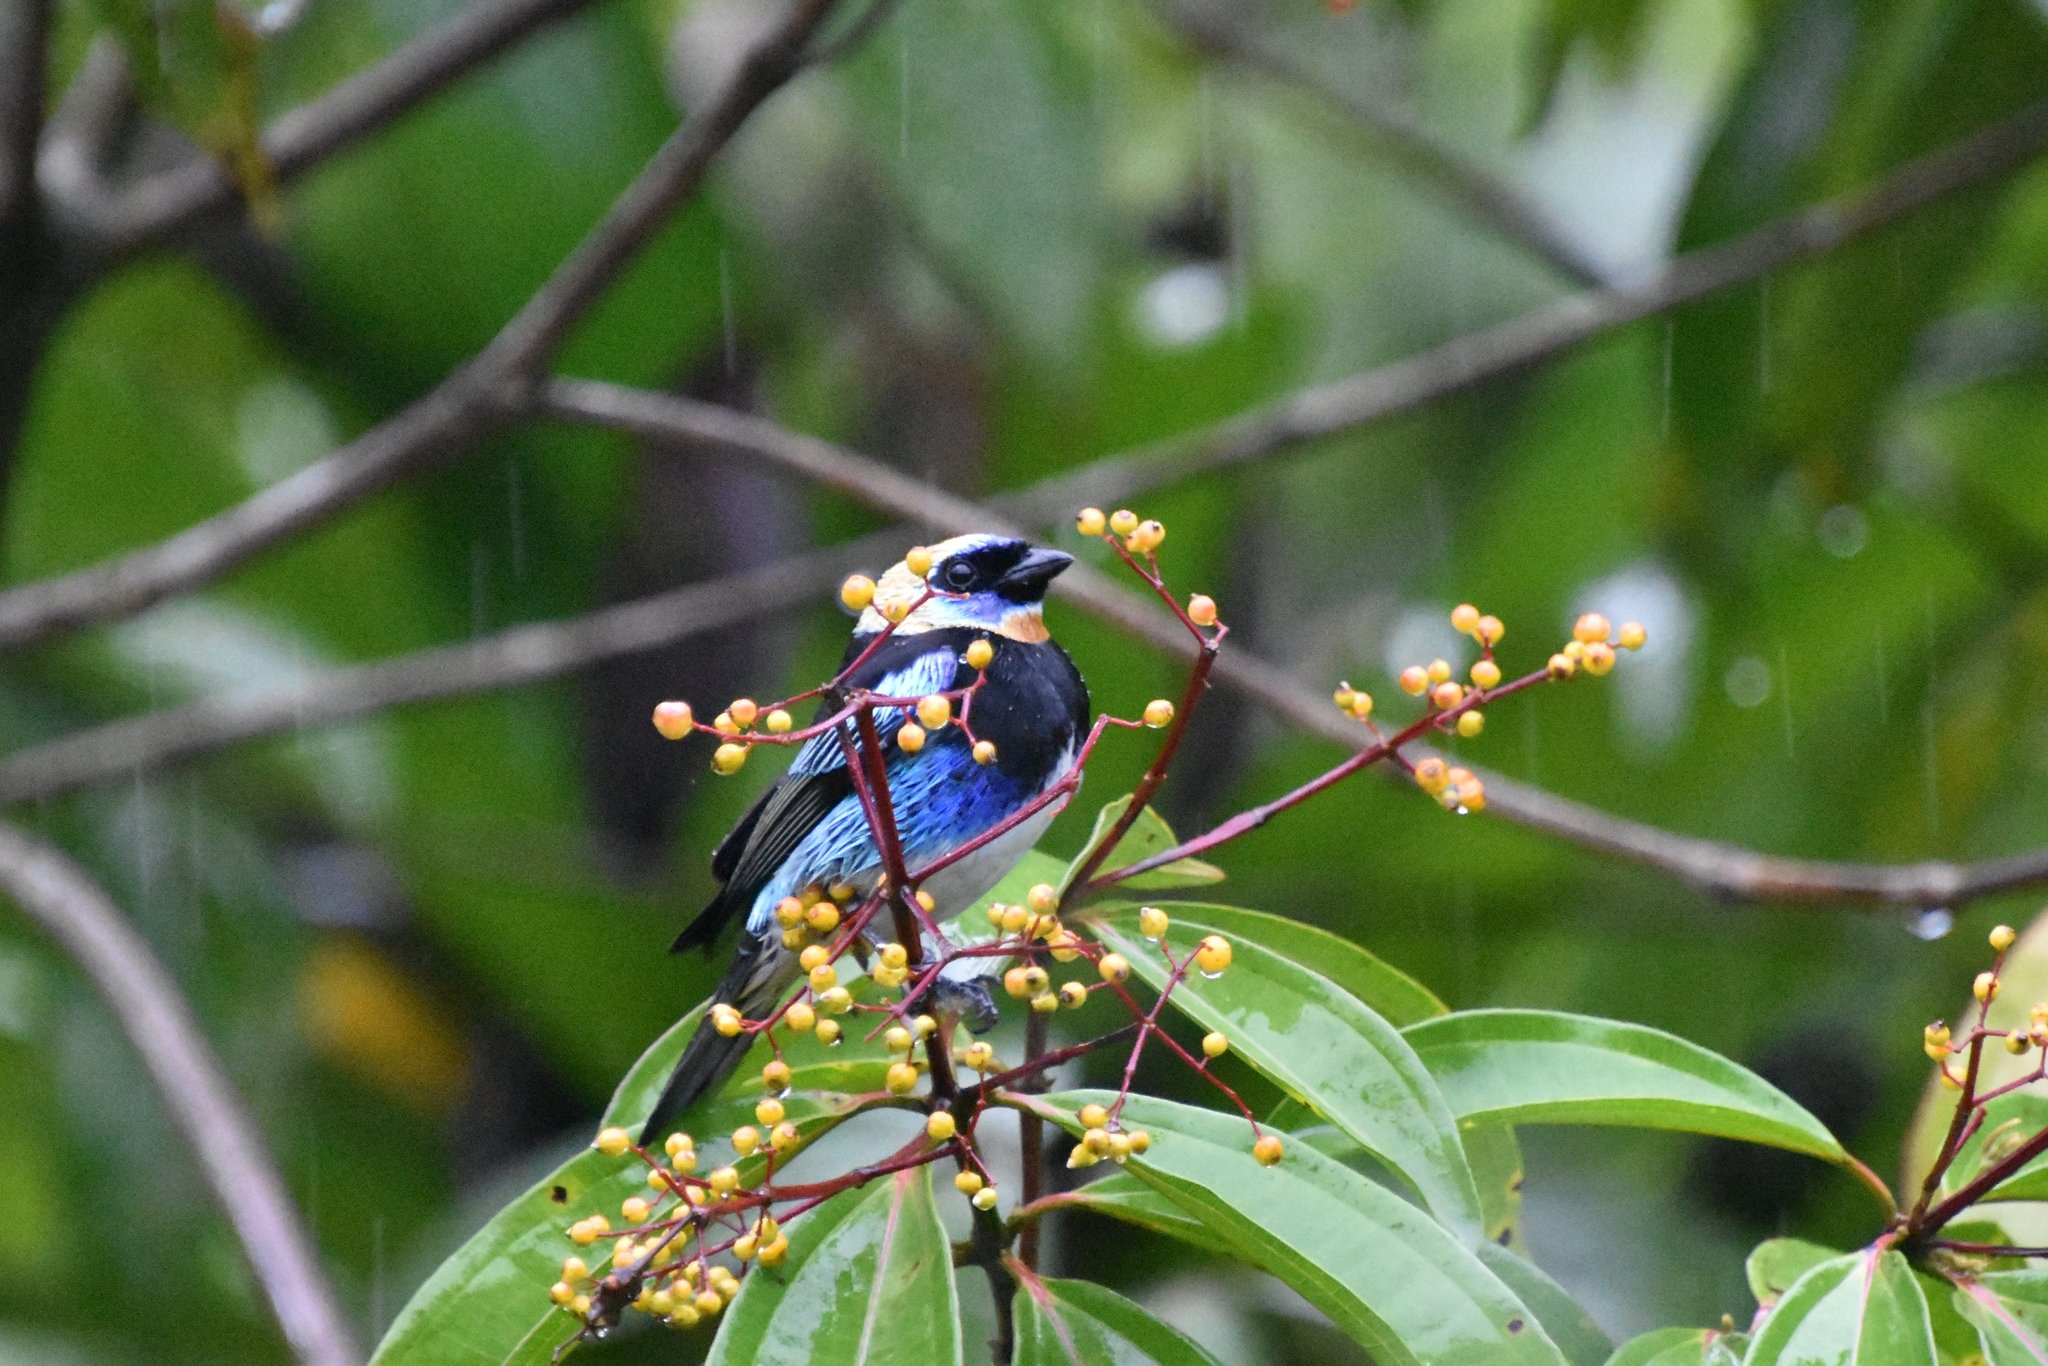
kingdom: Animalia
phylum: Chordata
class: Aves
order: Passeriformes
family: Thraupidae
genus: Stilpnia
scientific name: Stilpnia larvata
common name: Golden-hooded tanager
